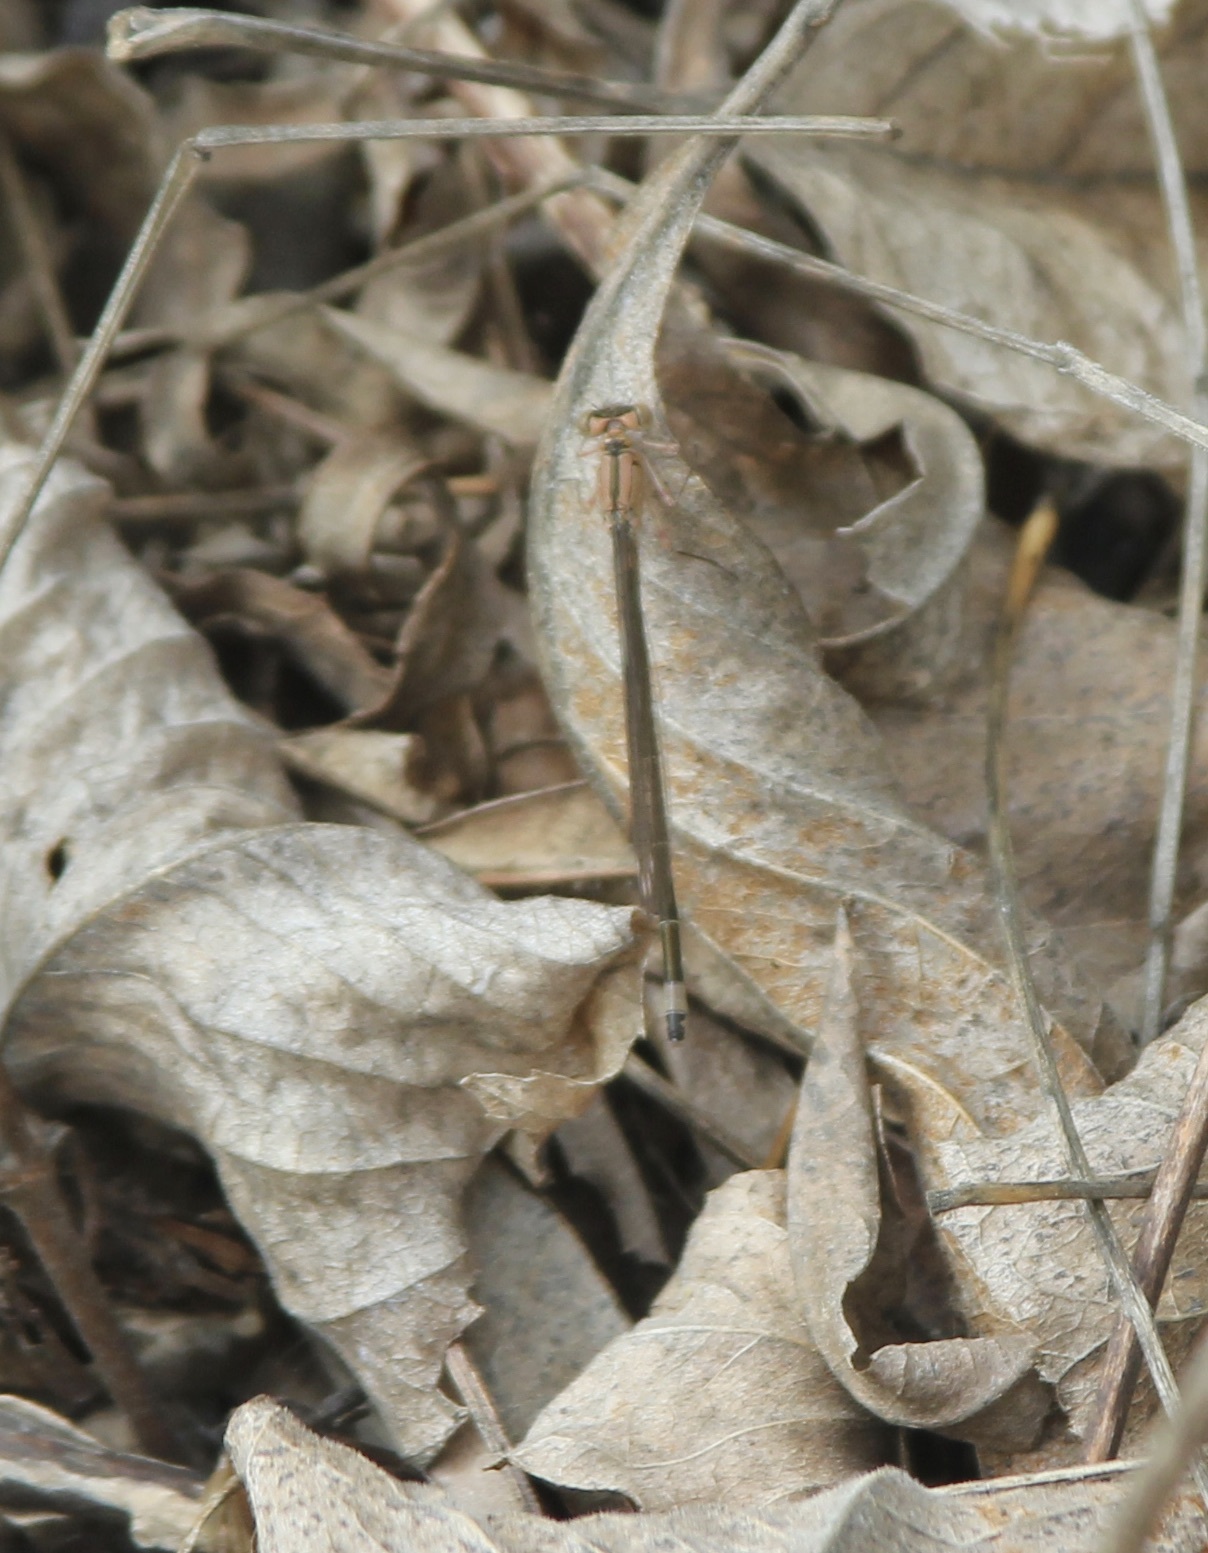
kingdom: Animalia
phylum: Arthropoda
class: Insecta
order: Odonata
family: Coenagrionidae
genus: Ischnura
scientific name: Ischnura cervula
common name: Pacific forktail
